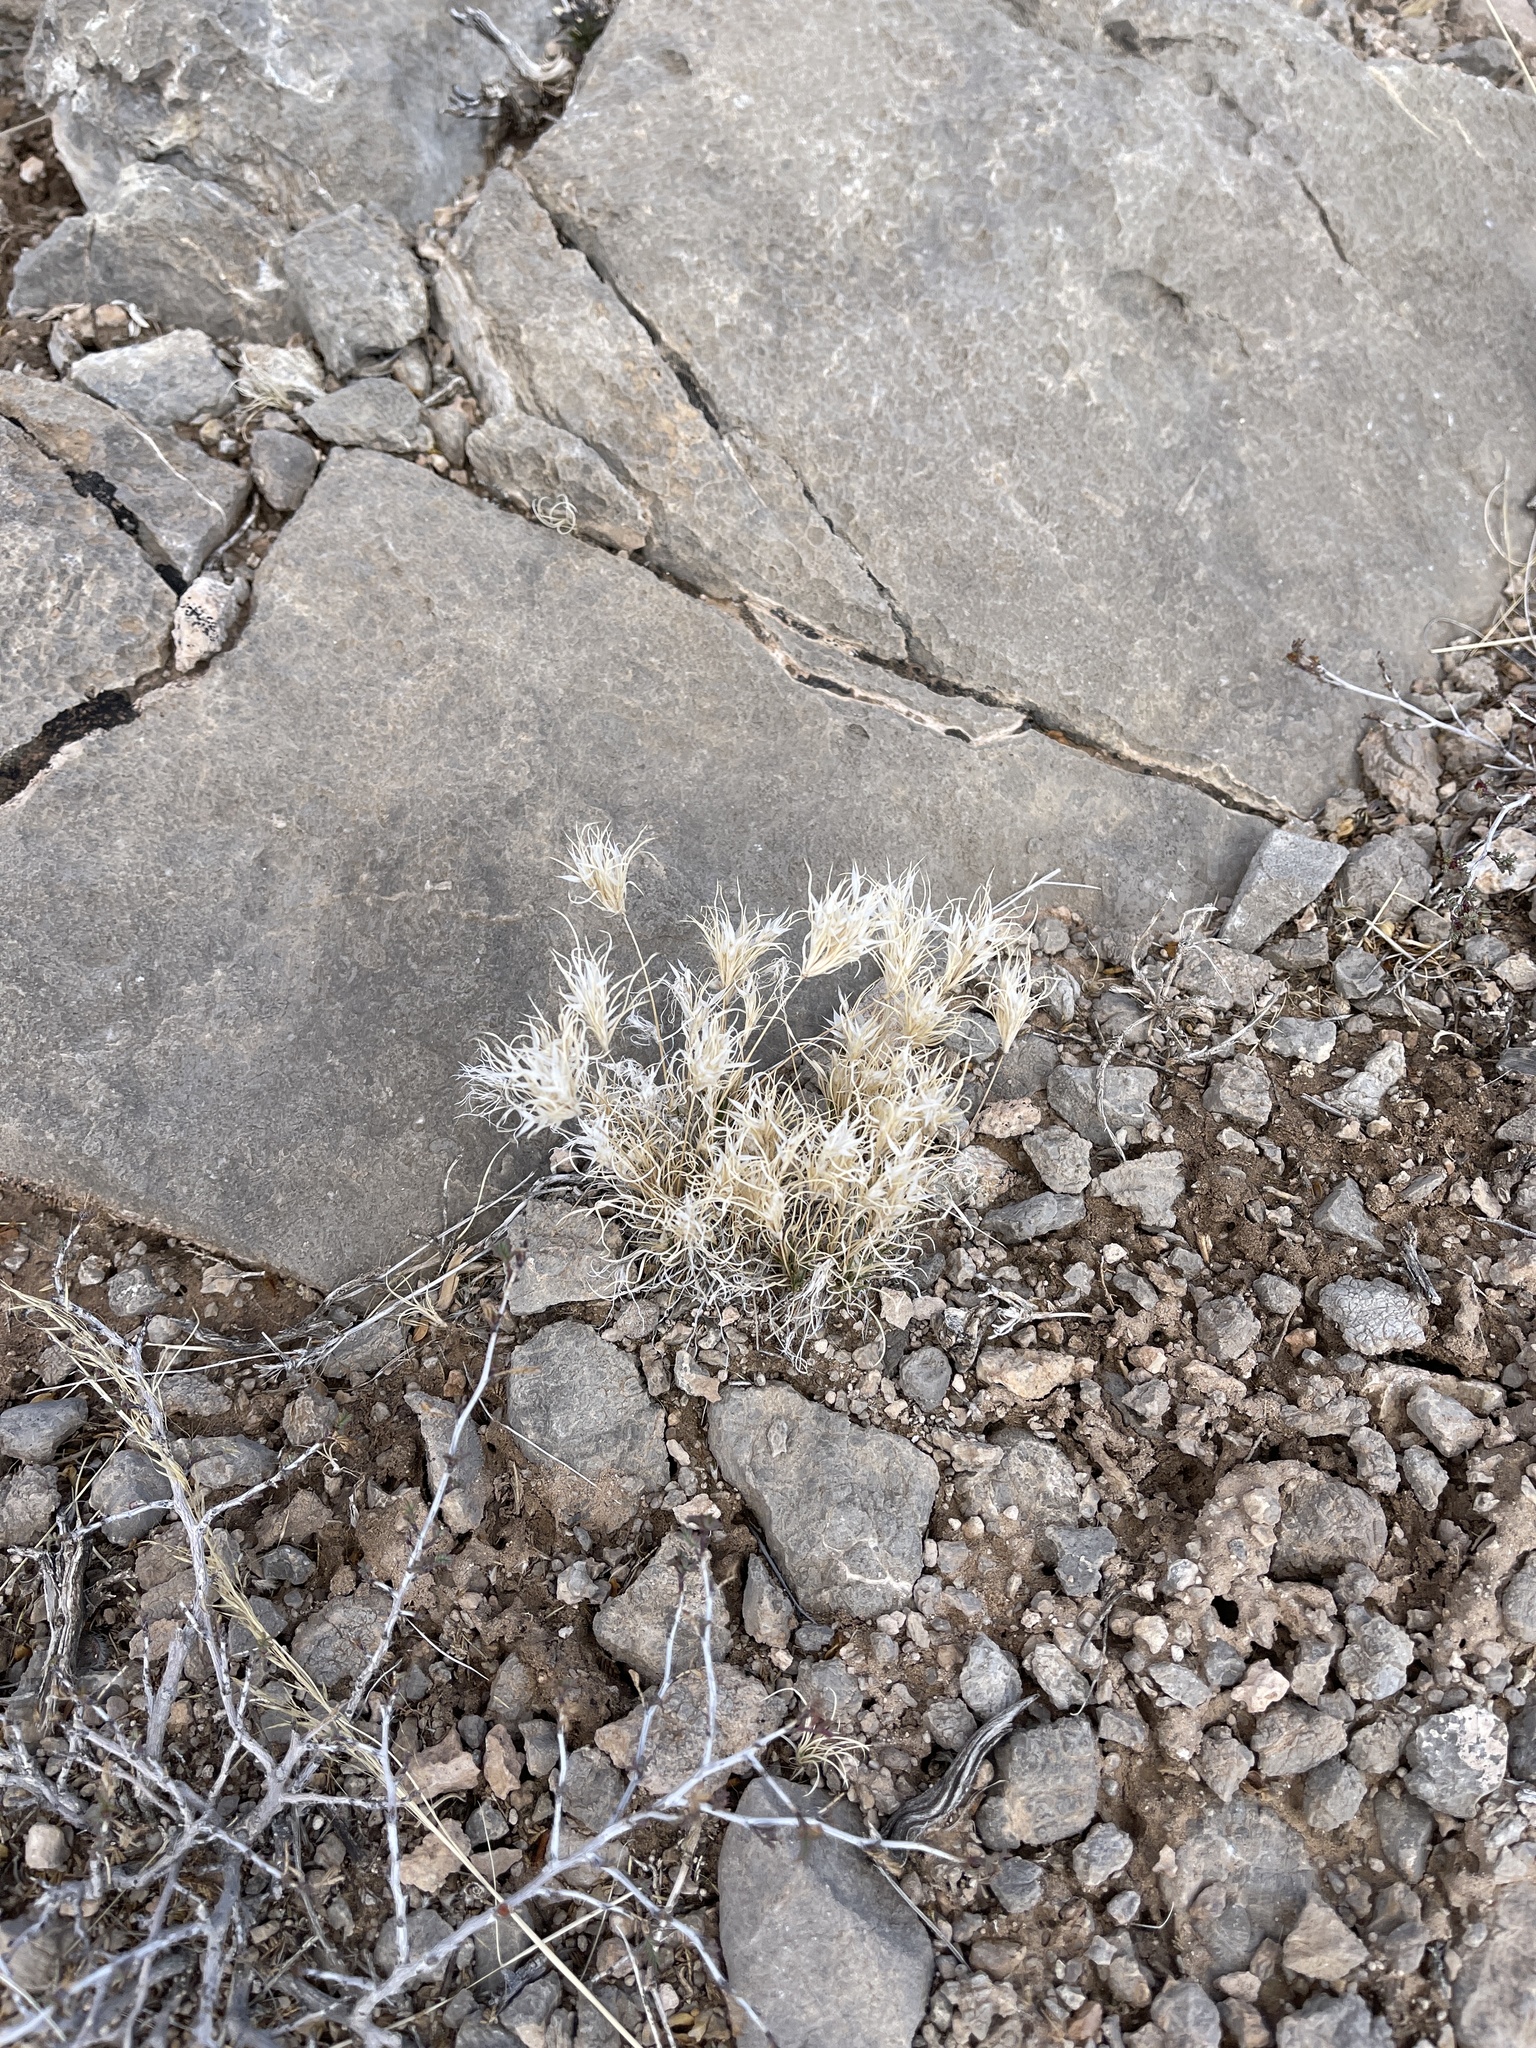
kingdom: Plantae
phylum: Tracheophyta
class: Liliopsida
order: Poales
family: Poaceae
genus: Dasyochloa
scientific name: Dasyochloa pulchella
